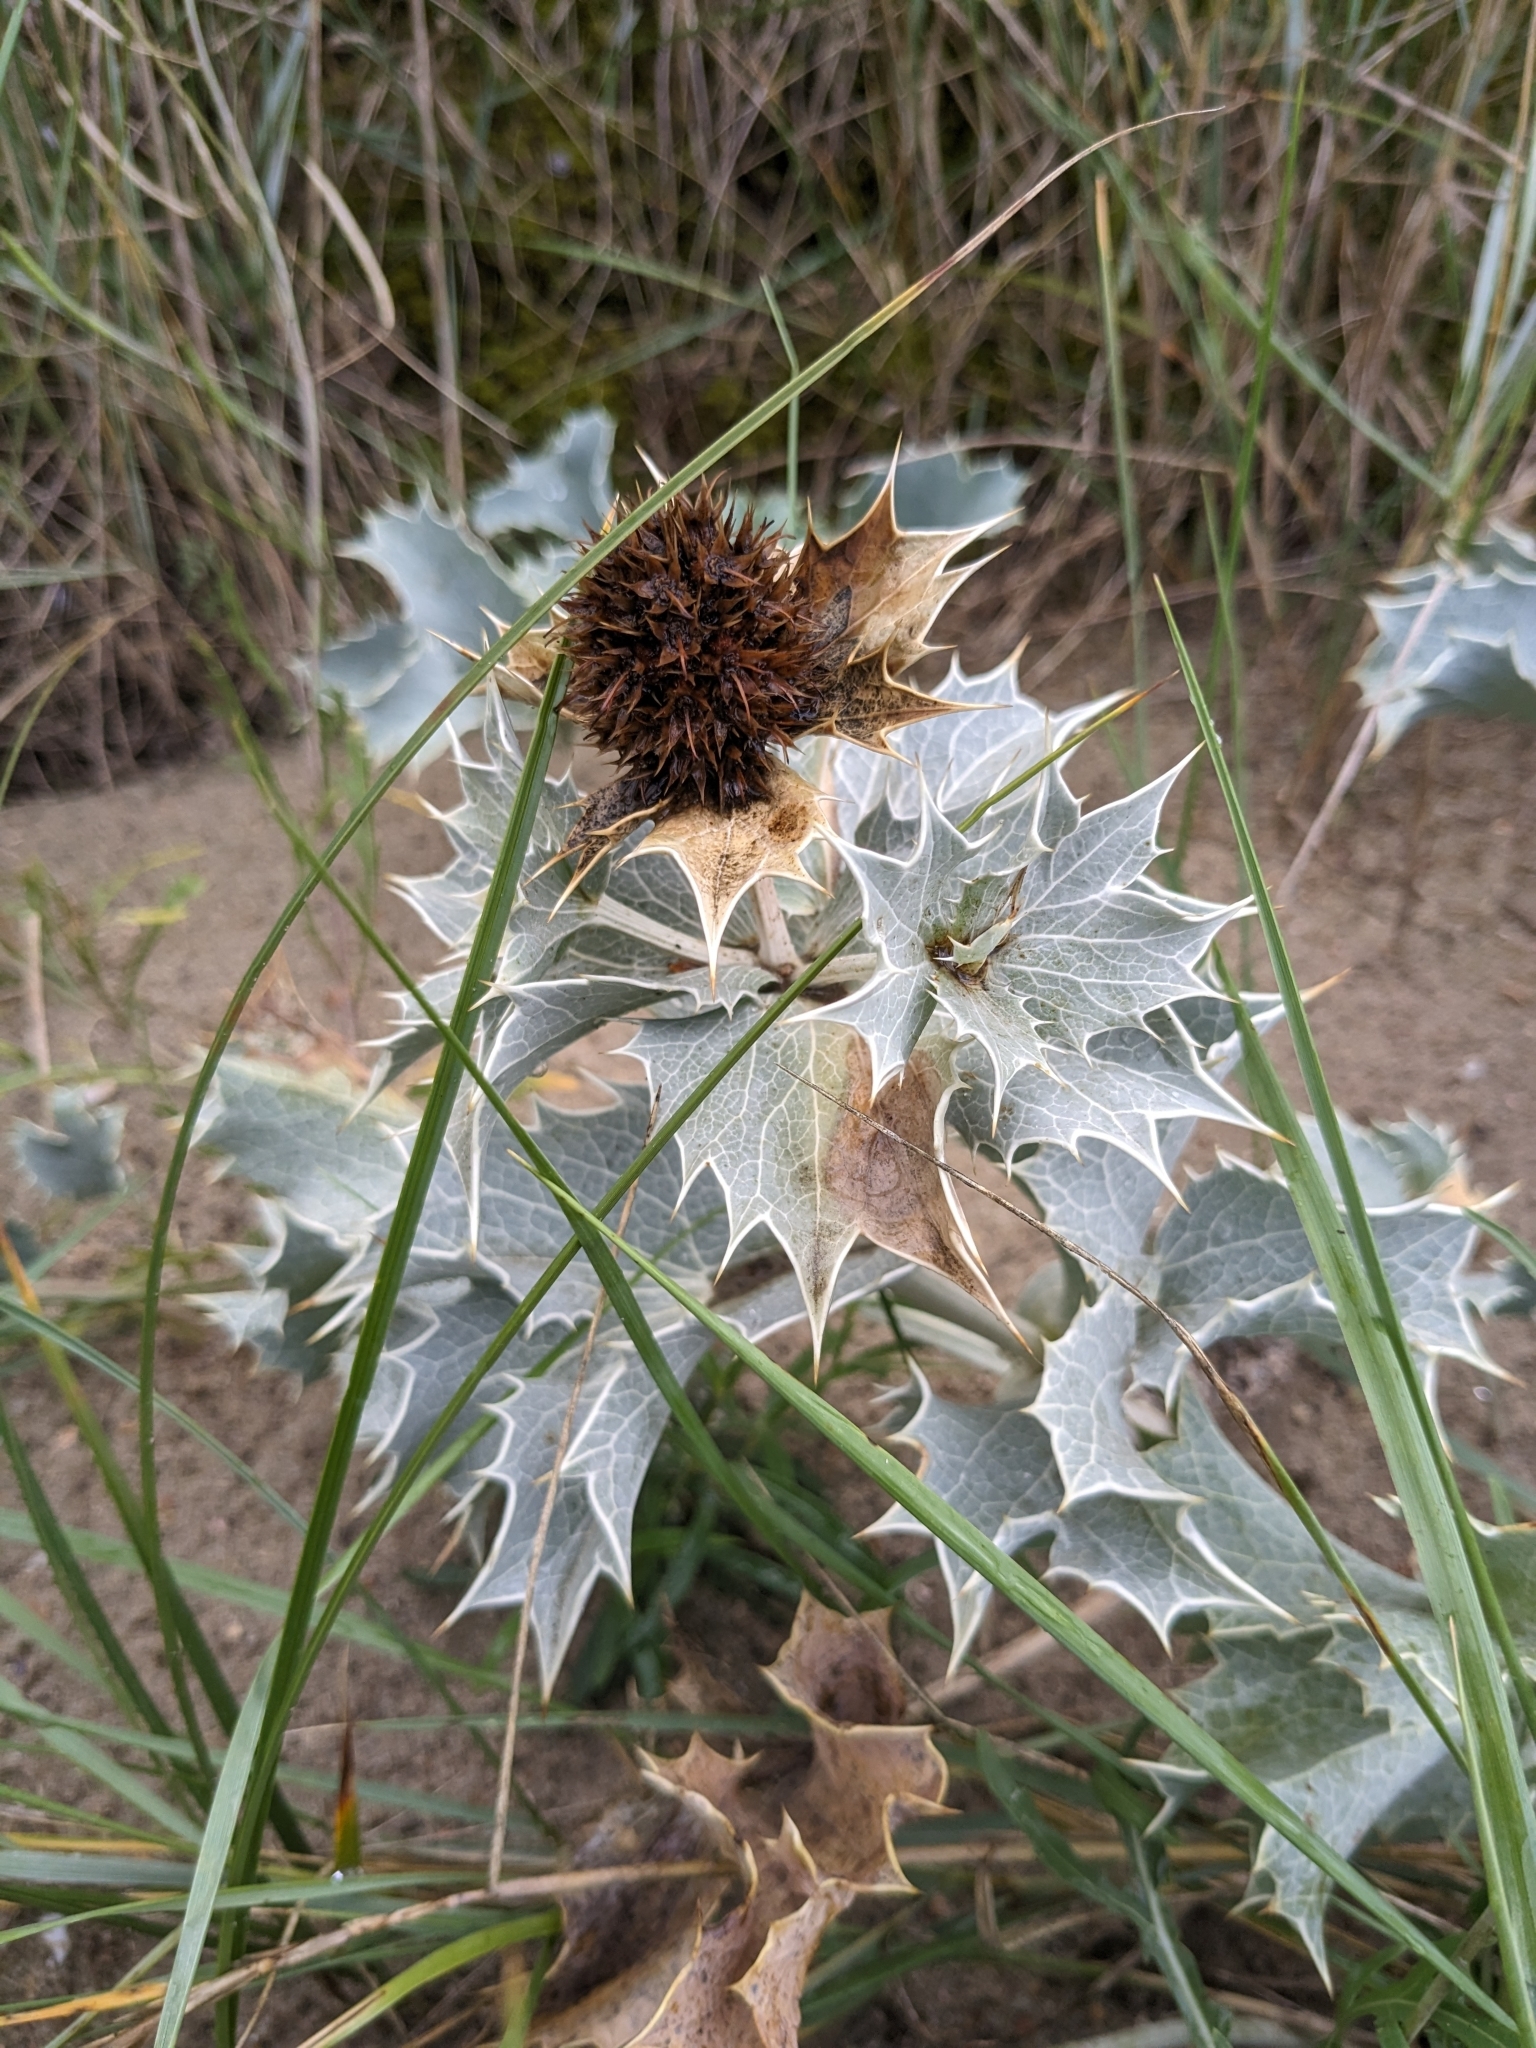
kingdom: Plantae
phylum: Tracheophyta
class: Magnoliopsida
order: Apiales
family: Apiaceae
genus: Eryngium
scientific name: Eryngium maritimum
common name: Sea-holly
